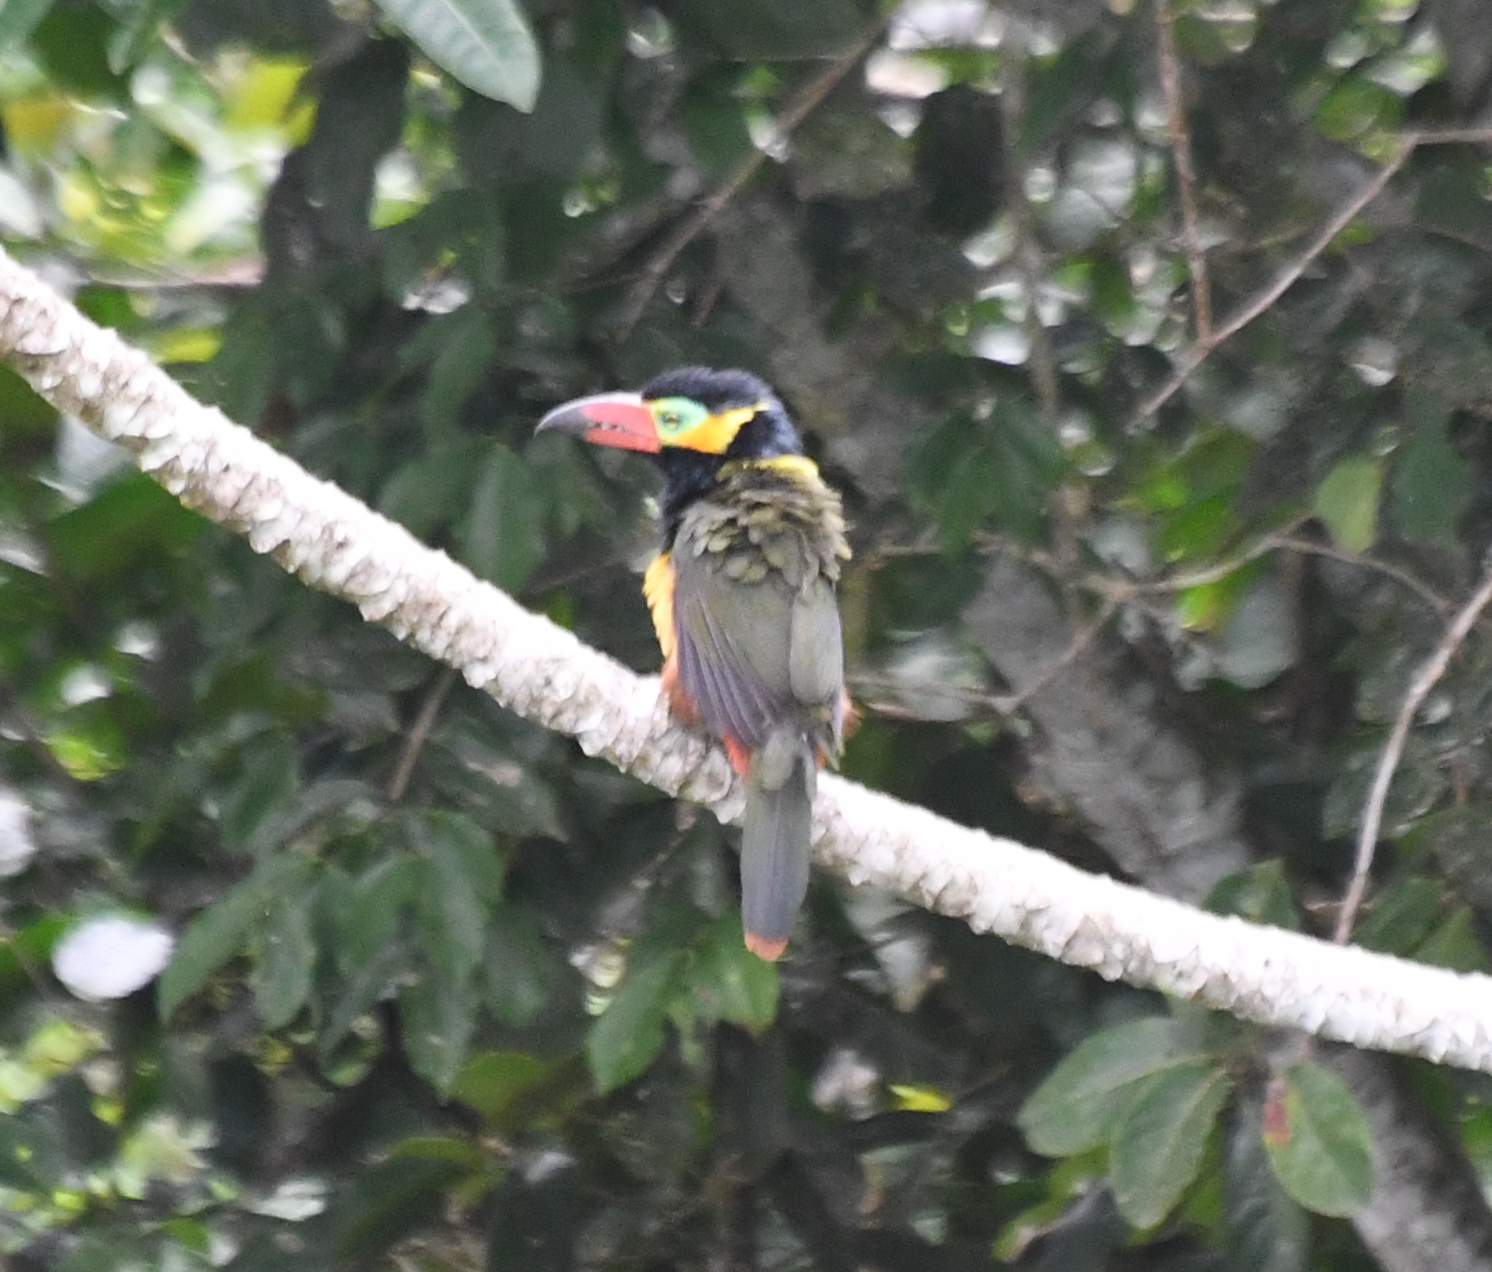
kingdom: Animalia
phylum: Chordata
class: Aves
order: Piciformes
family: Ramphastidae
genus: Selenidera
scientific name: Selenidera reinwardtii
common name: Golden-collared toucanet
